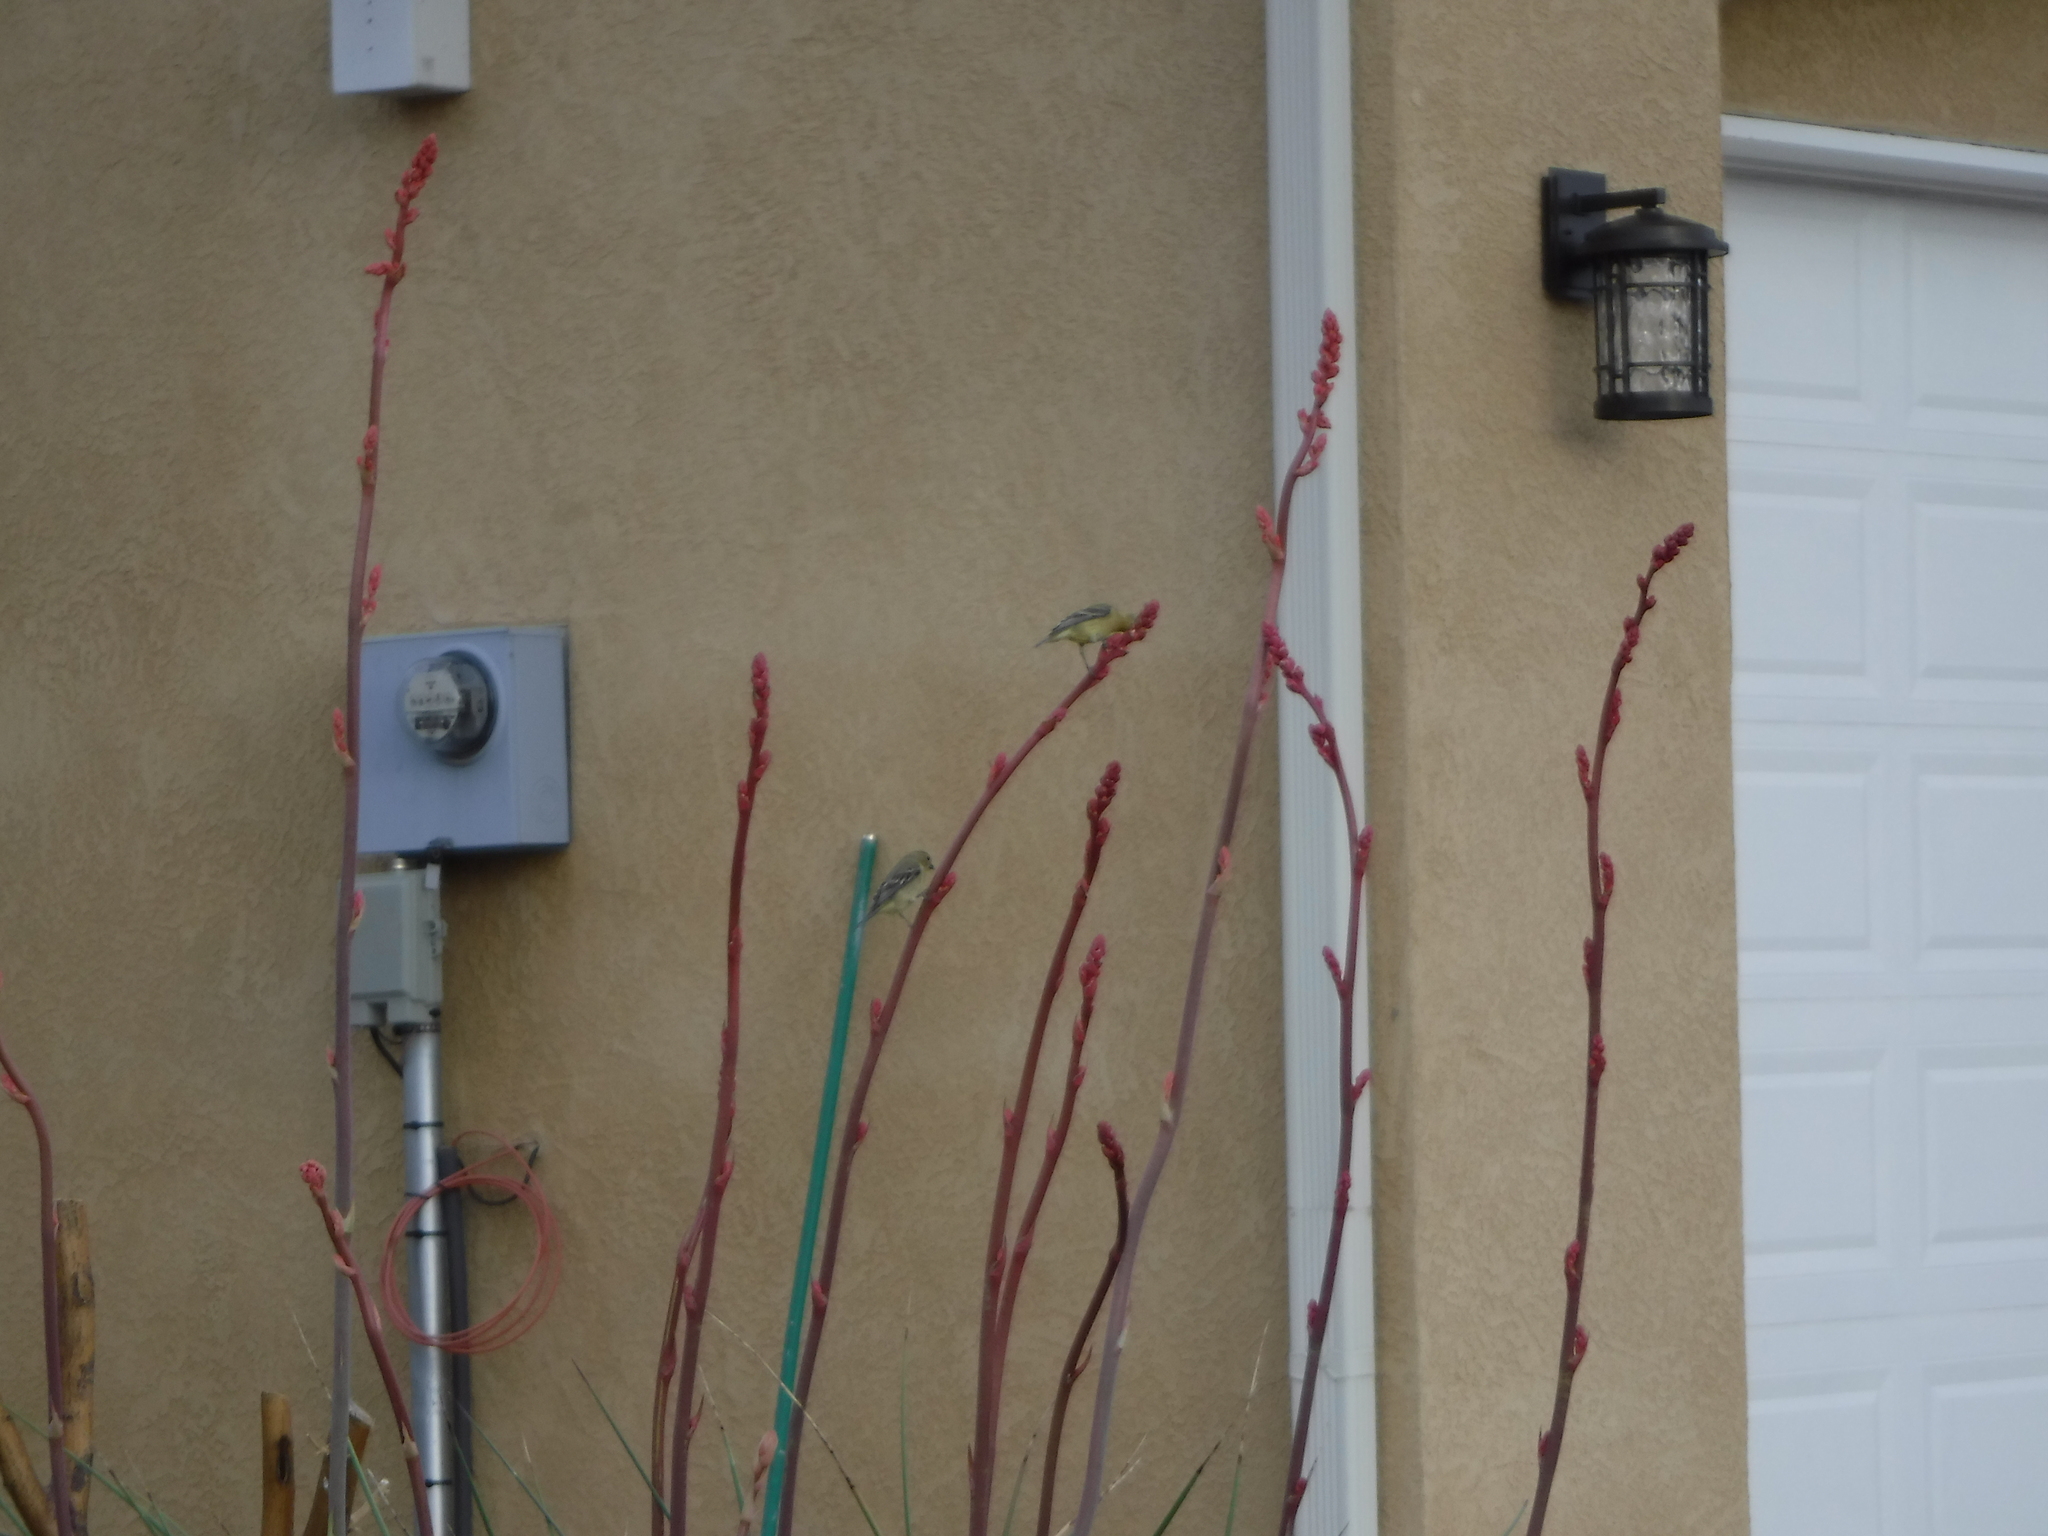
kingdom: Animalia
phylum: Chordata
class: Aves
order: Passeriformes
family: Fringillidae
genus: Spinus
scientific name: Spinus psaltria
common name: Lesser goldfinch
